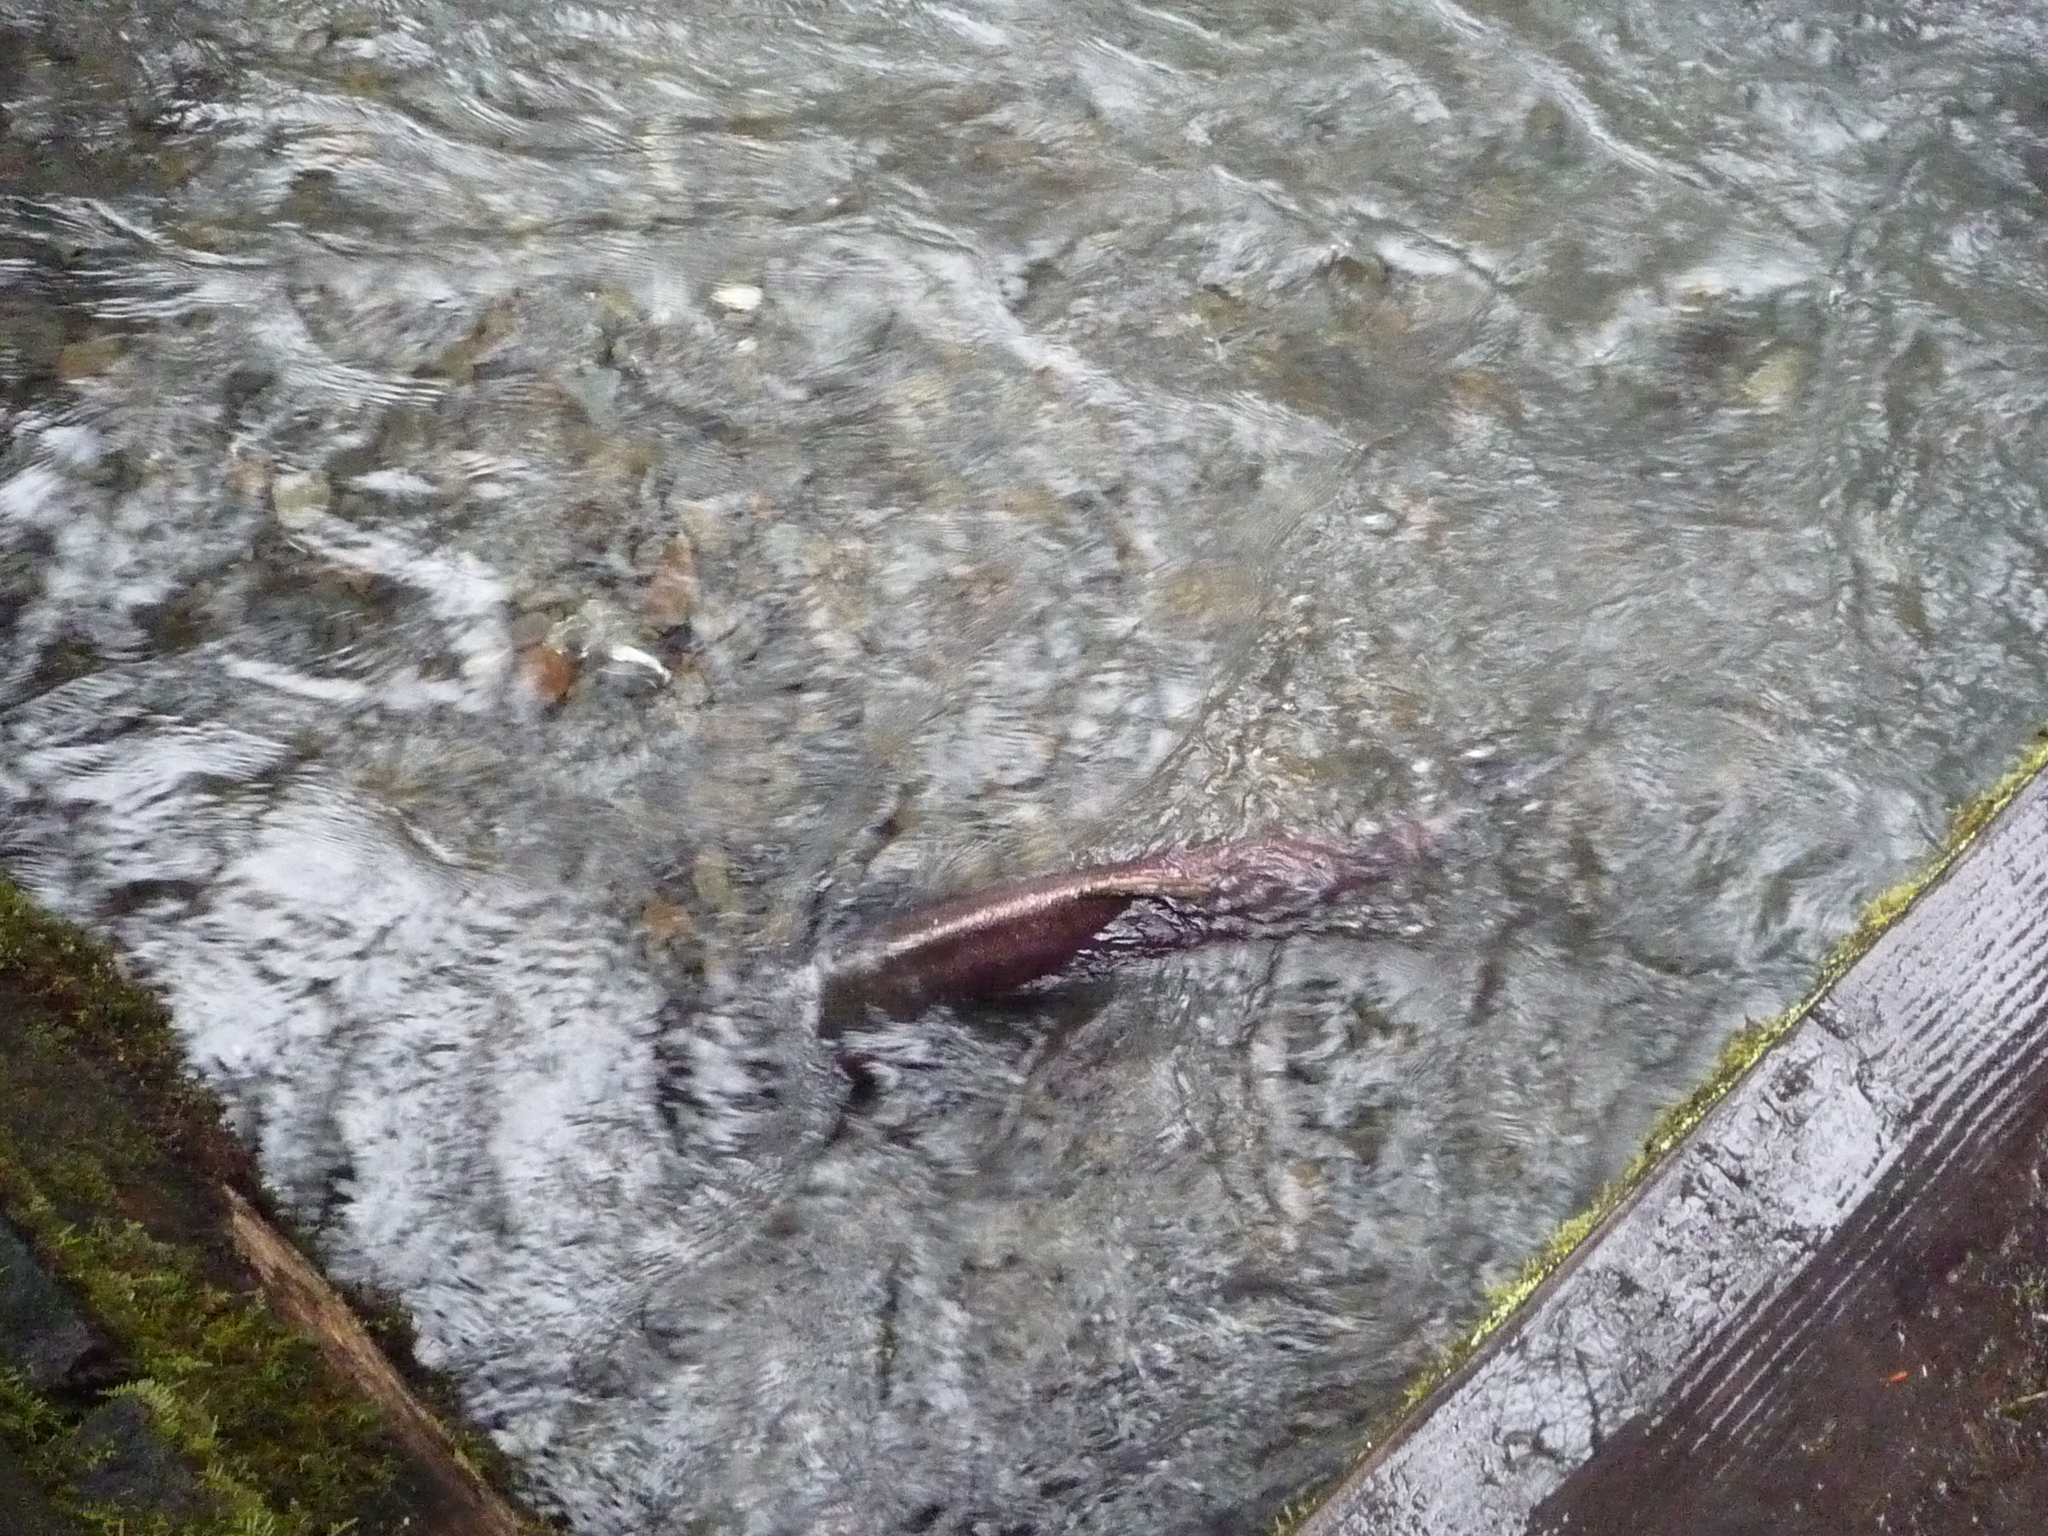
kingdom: Animalia
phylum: Chordata
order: Salmoniformes
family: Salmonidae
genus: Oncorhynchus
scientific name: Oncorhynchus kisutch
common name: Coho salmon
